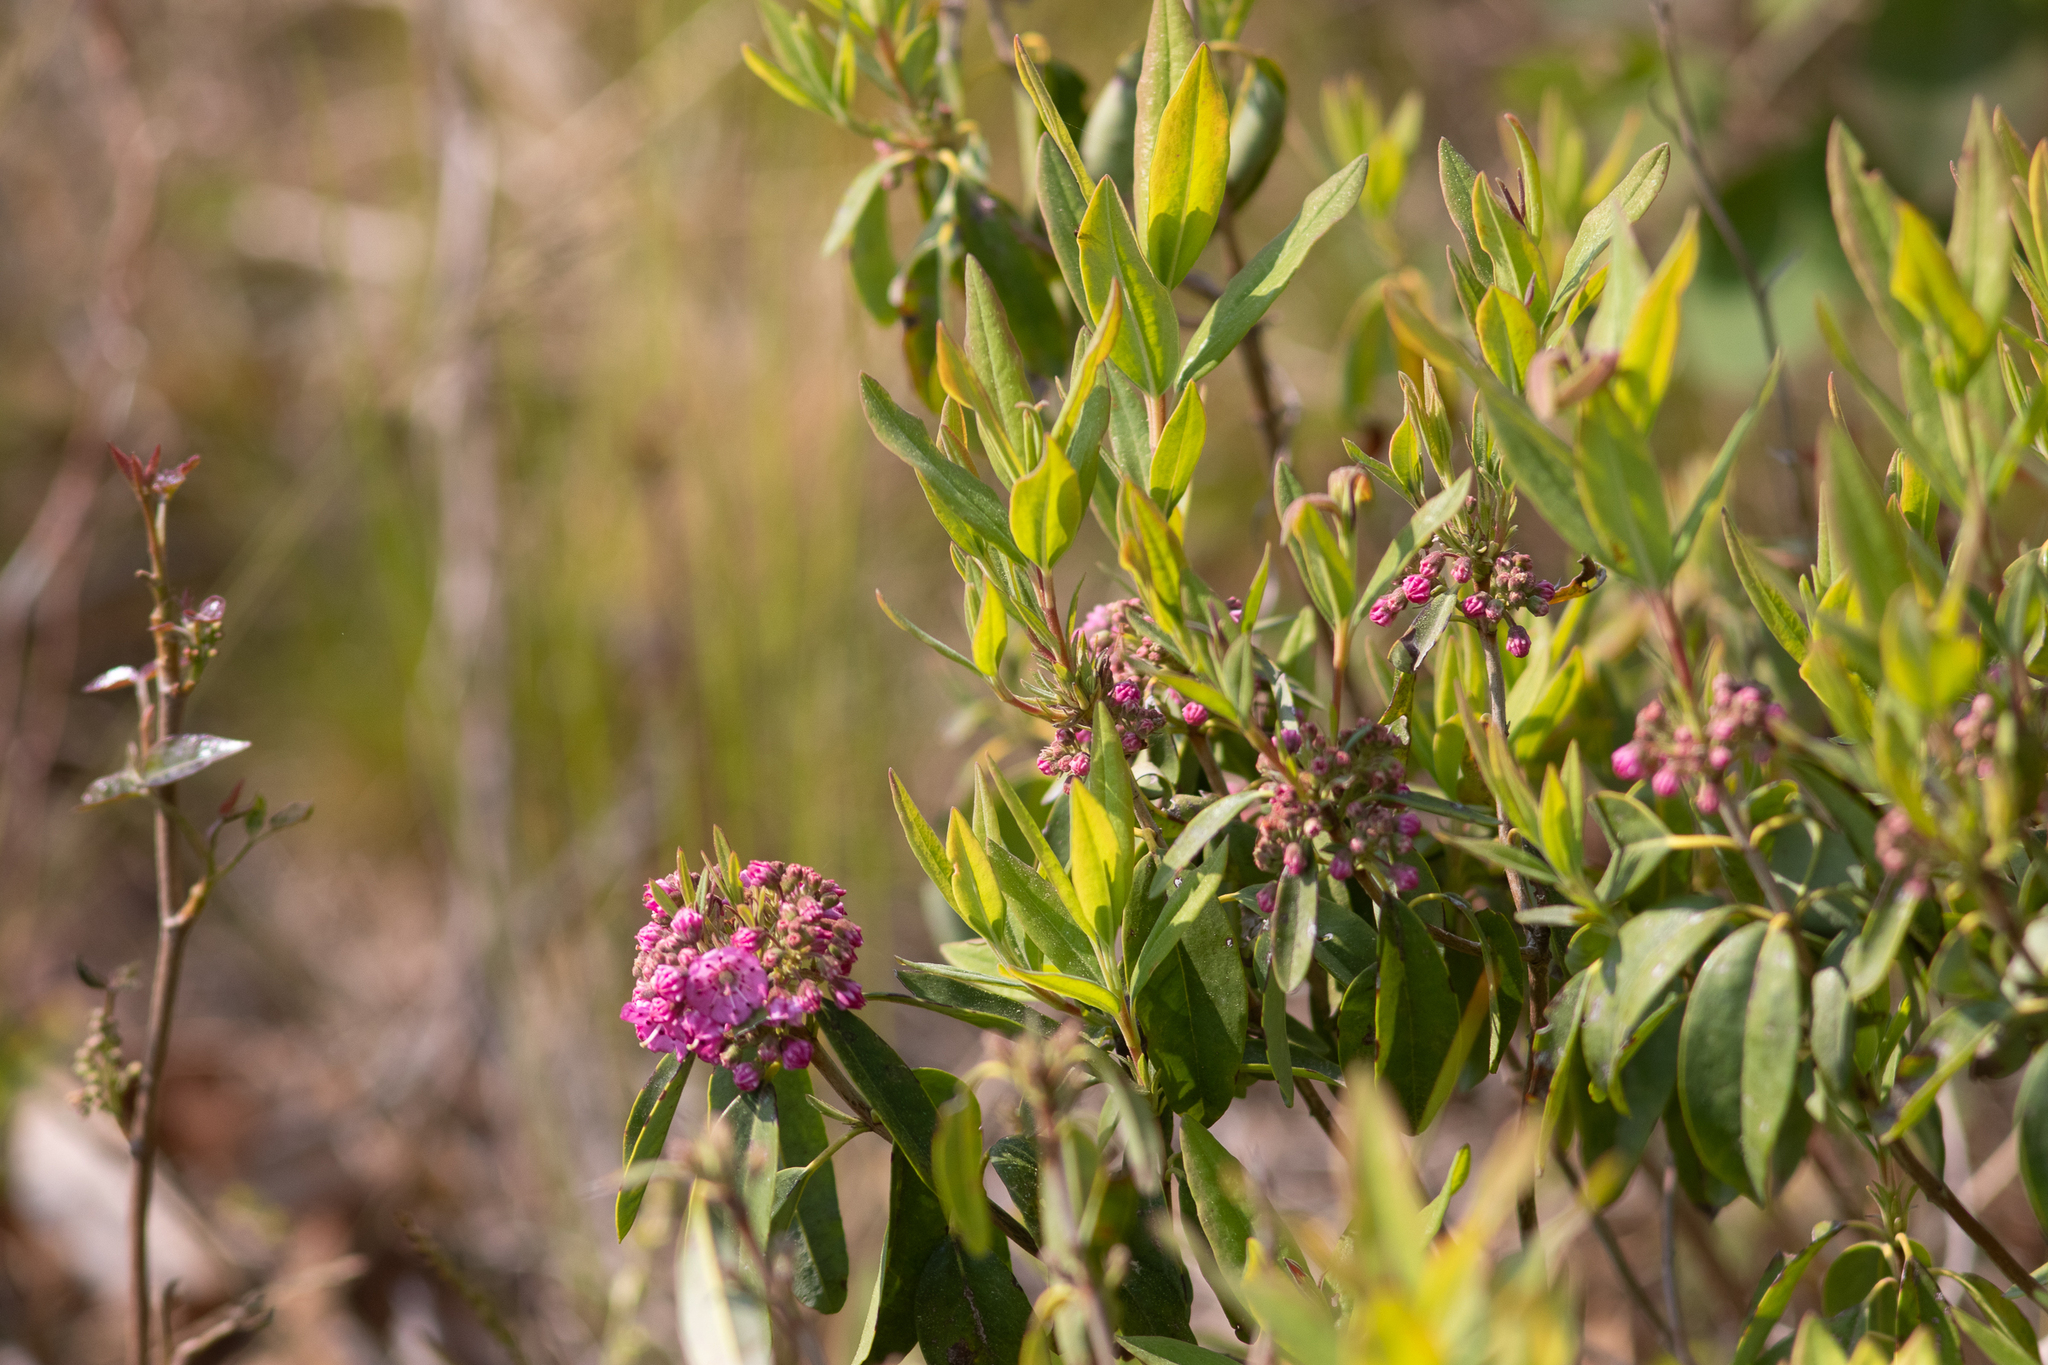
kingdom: Plantae
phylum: Tracheophyta
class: Magnoliopsida
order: Ericales
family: Ericaceae
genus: Kalmia
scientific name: Kalmia angustifolia
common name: Sheep-laurel
